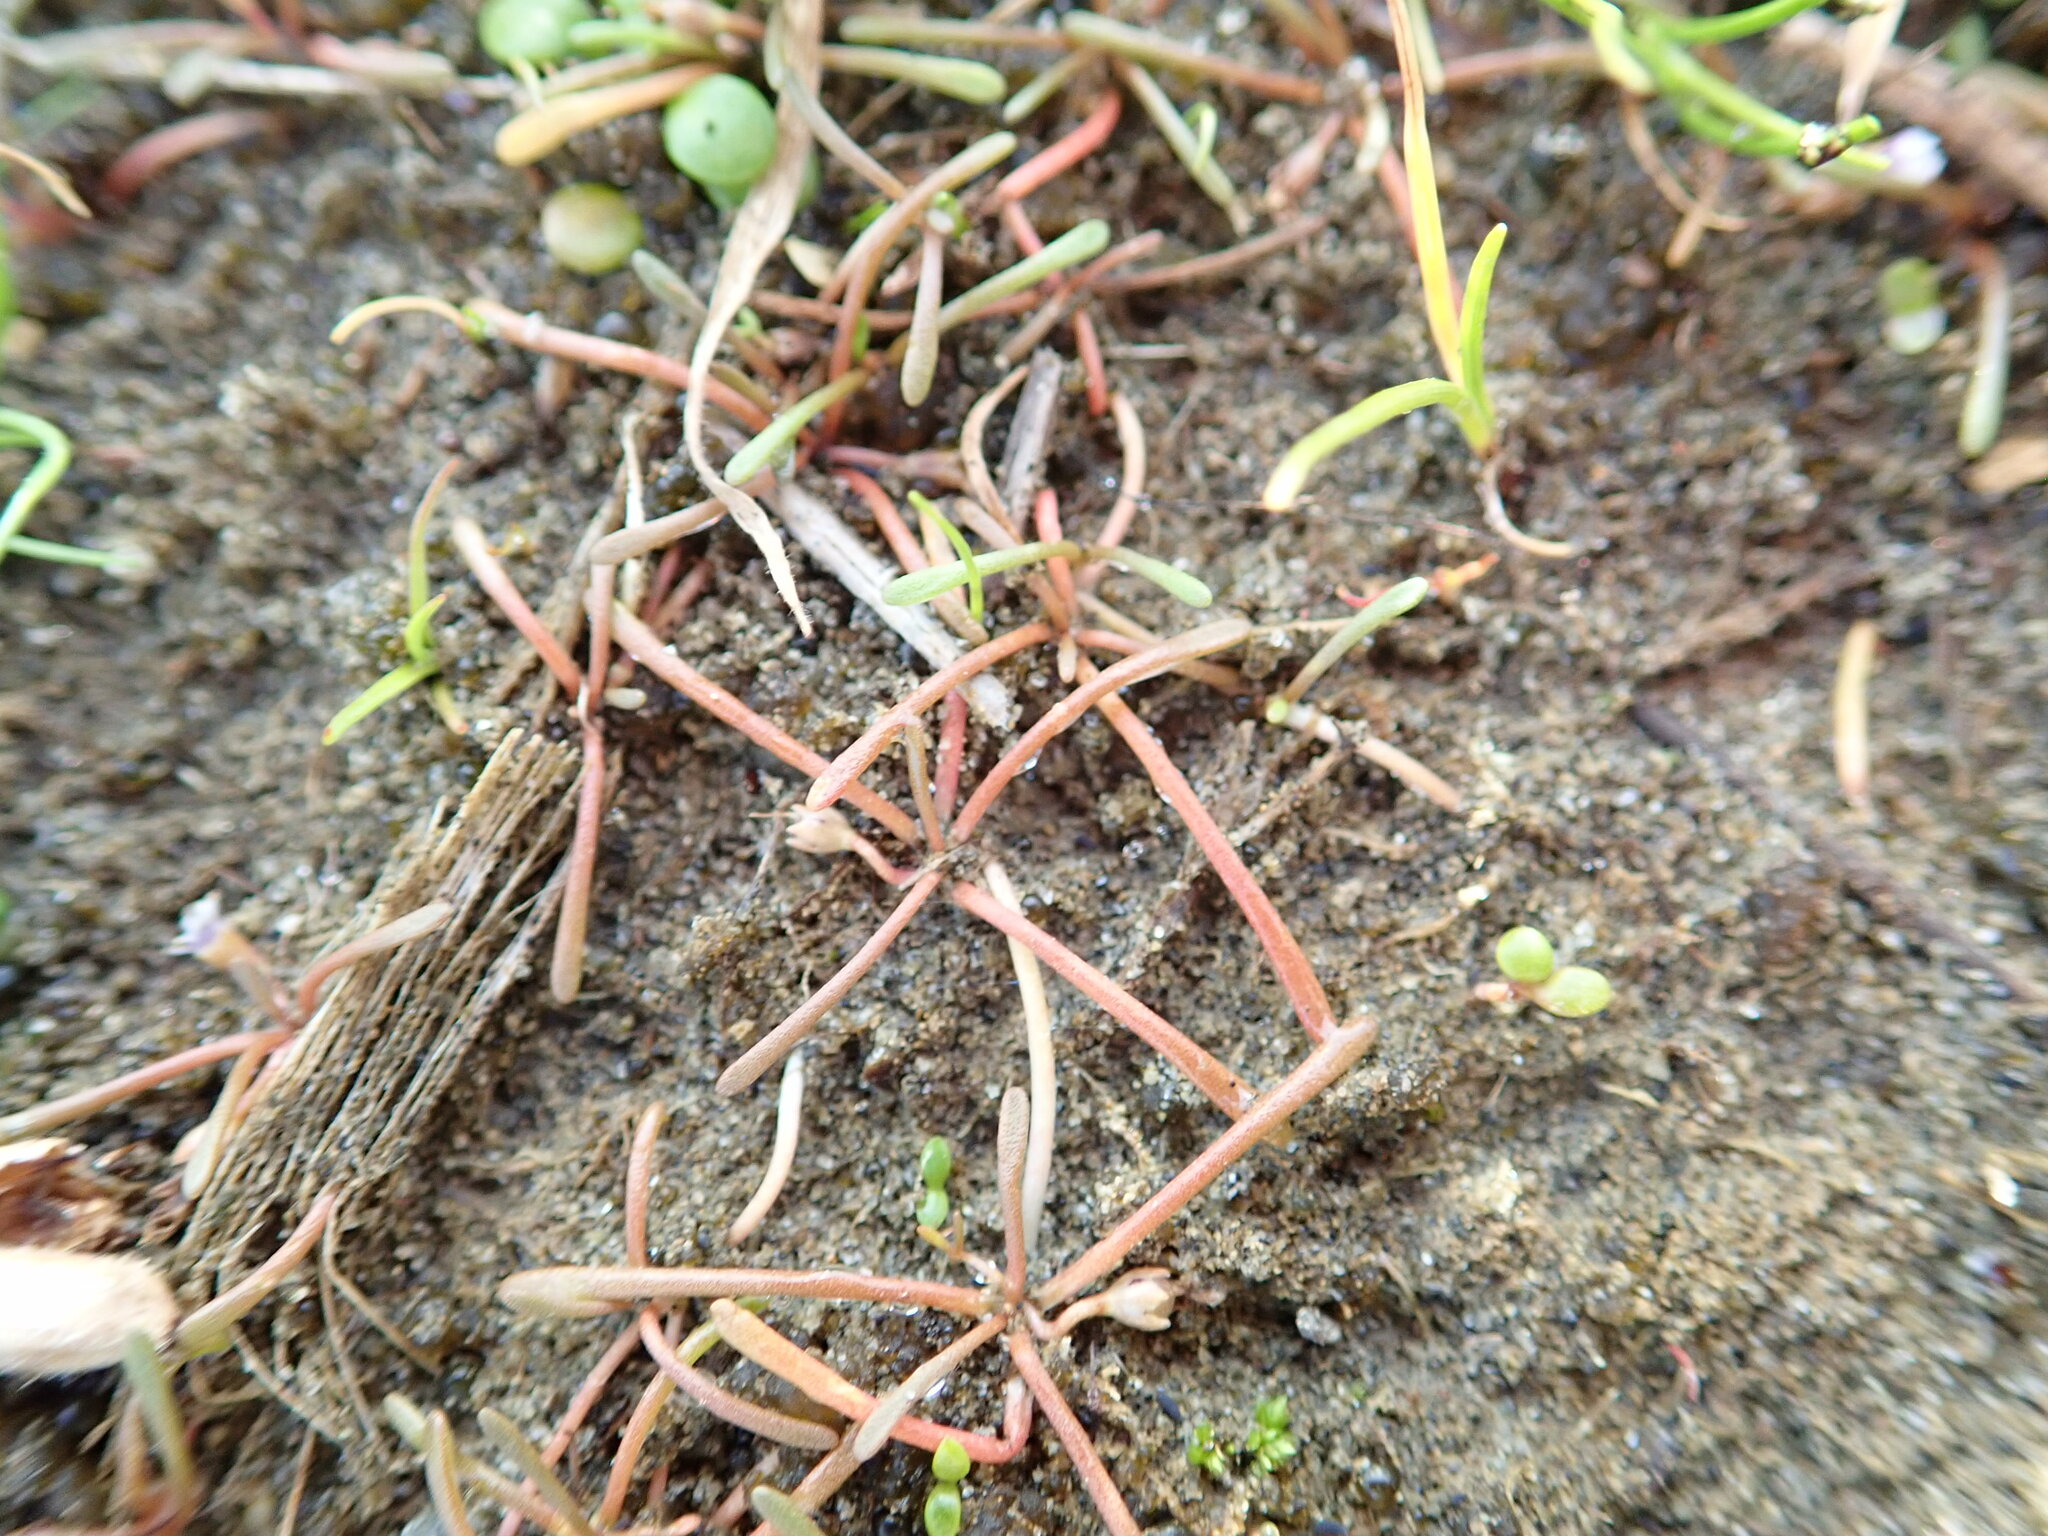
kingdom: Plantae
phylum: Tracheophyta
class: Magnoliopsida
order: Lamiales
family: Scrophulariaceae
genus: Limosella
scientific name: Limosella australis
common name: Welsh mudwort
